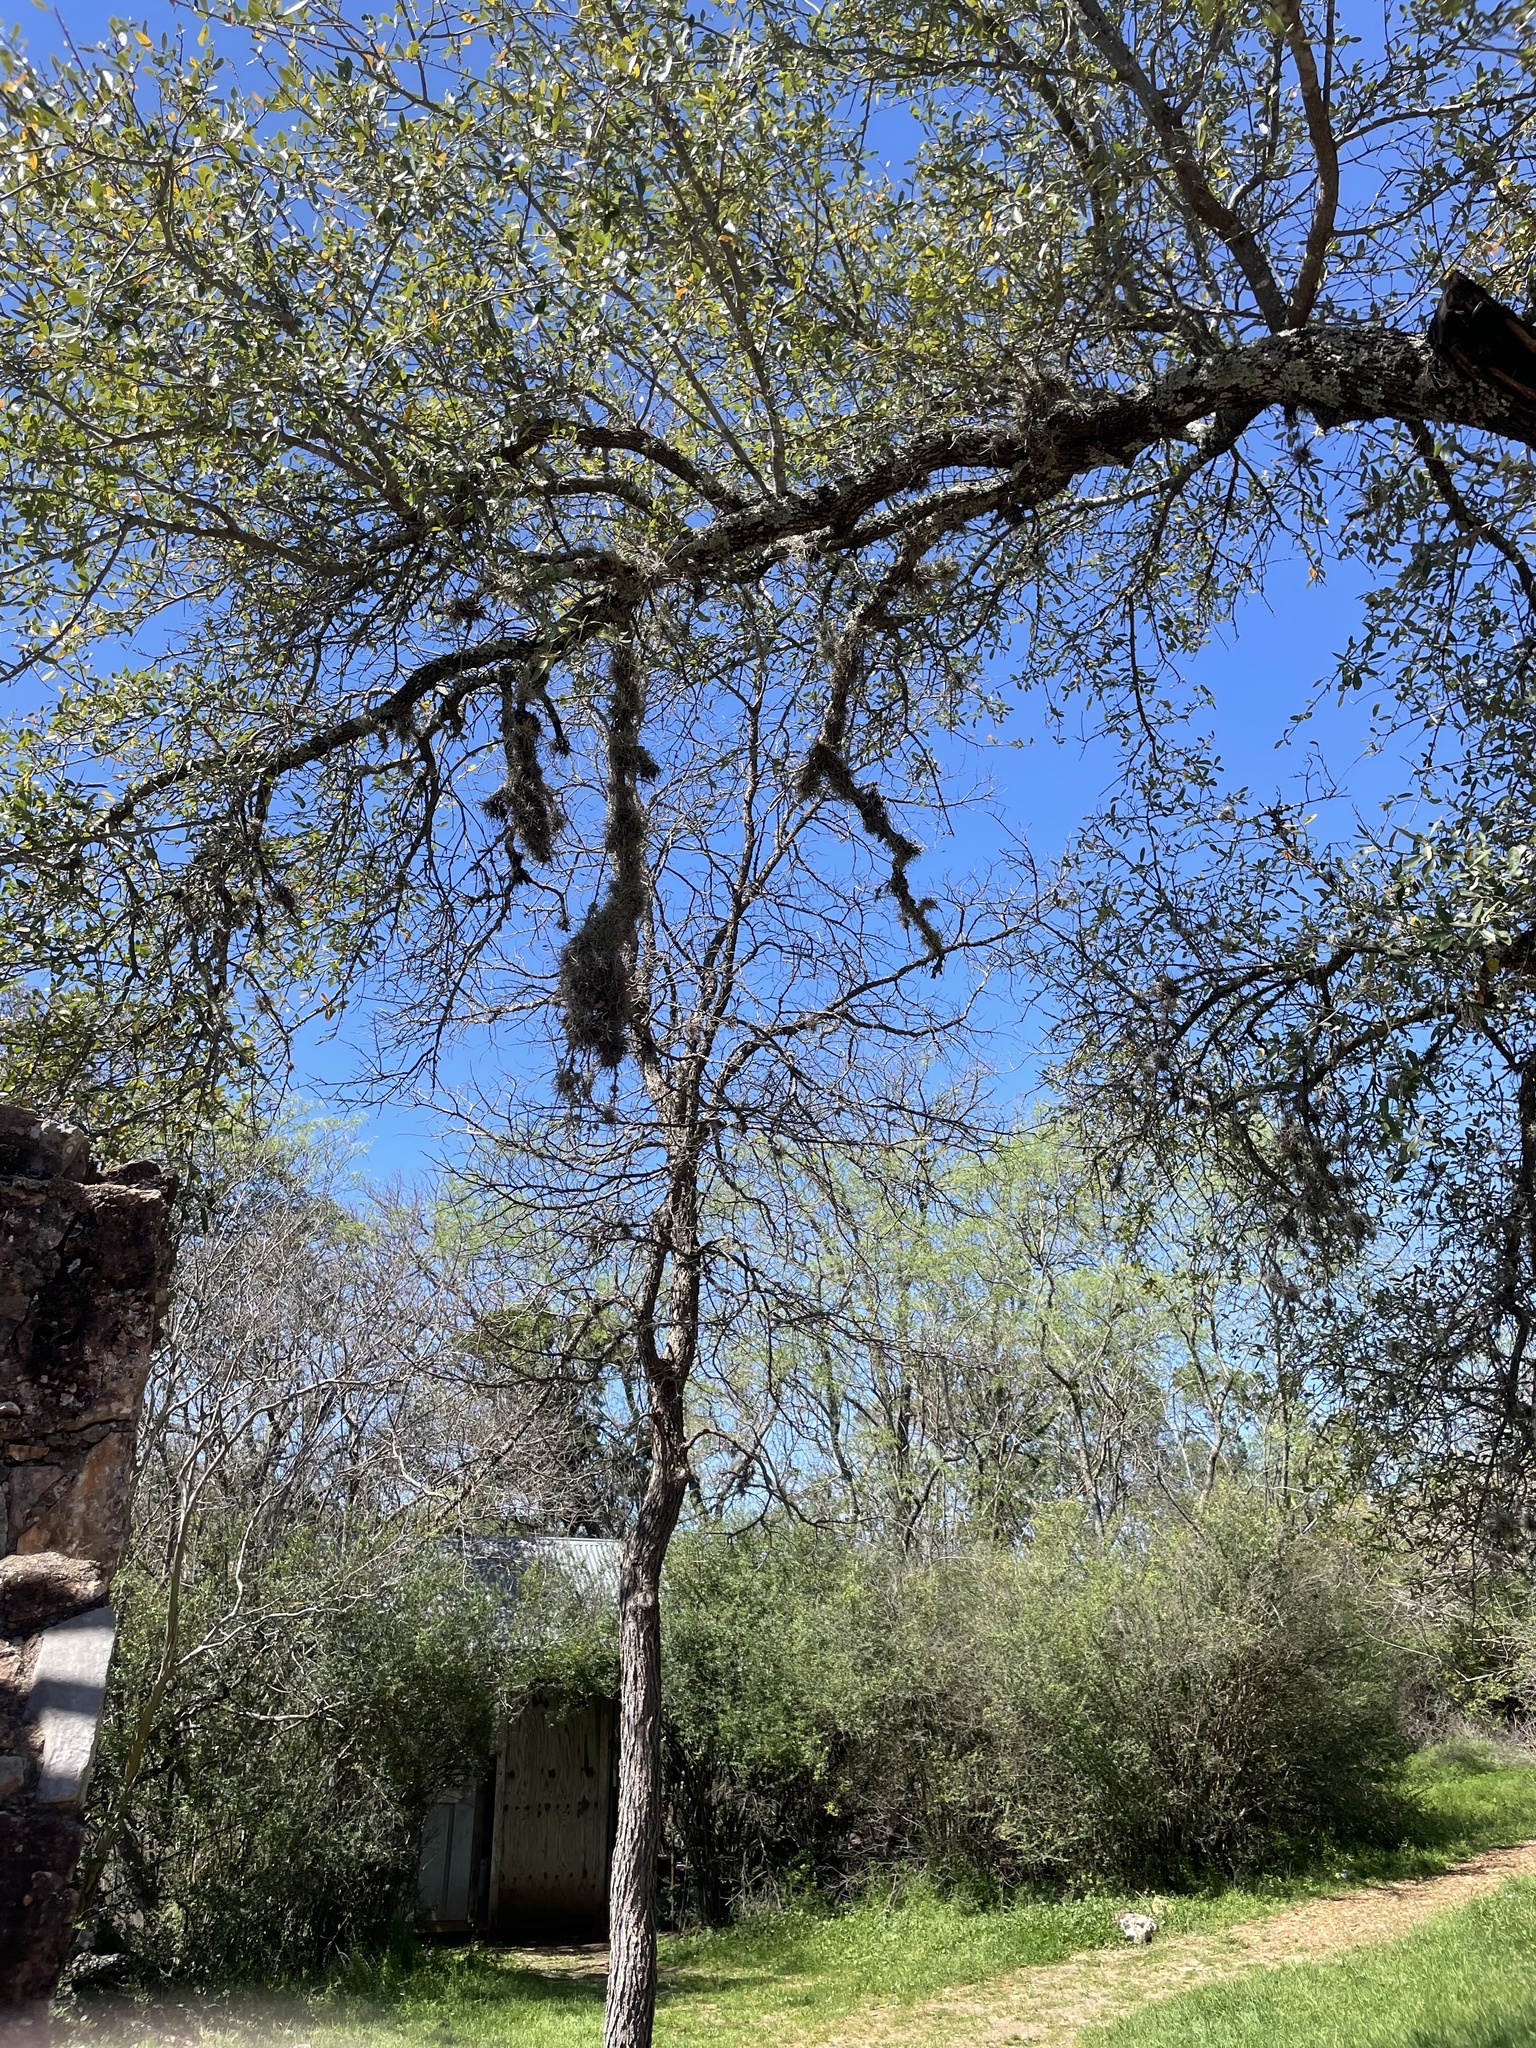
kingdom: Plantae
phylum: Tracheophyta
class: Liliopsida
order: Poales
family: Bromeliaceae
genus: Tillandsia
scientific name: Tillandsia recurvata
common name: Small ballmoss
